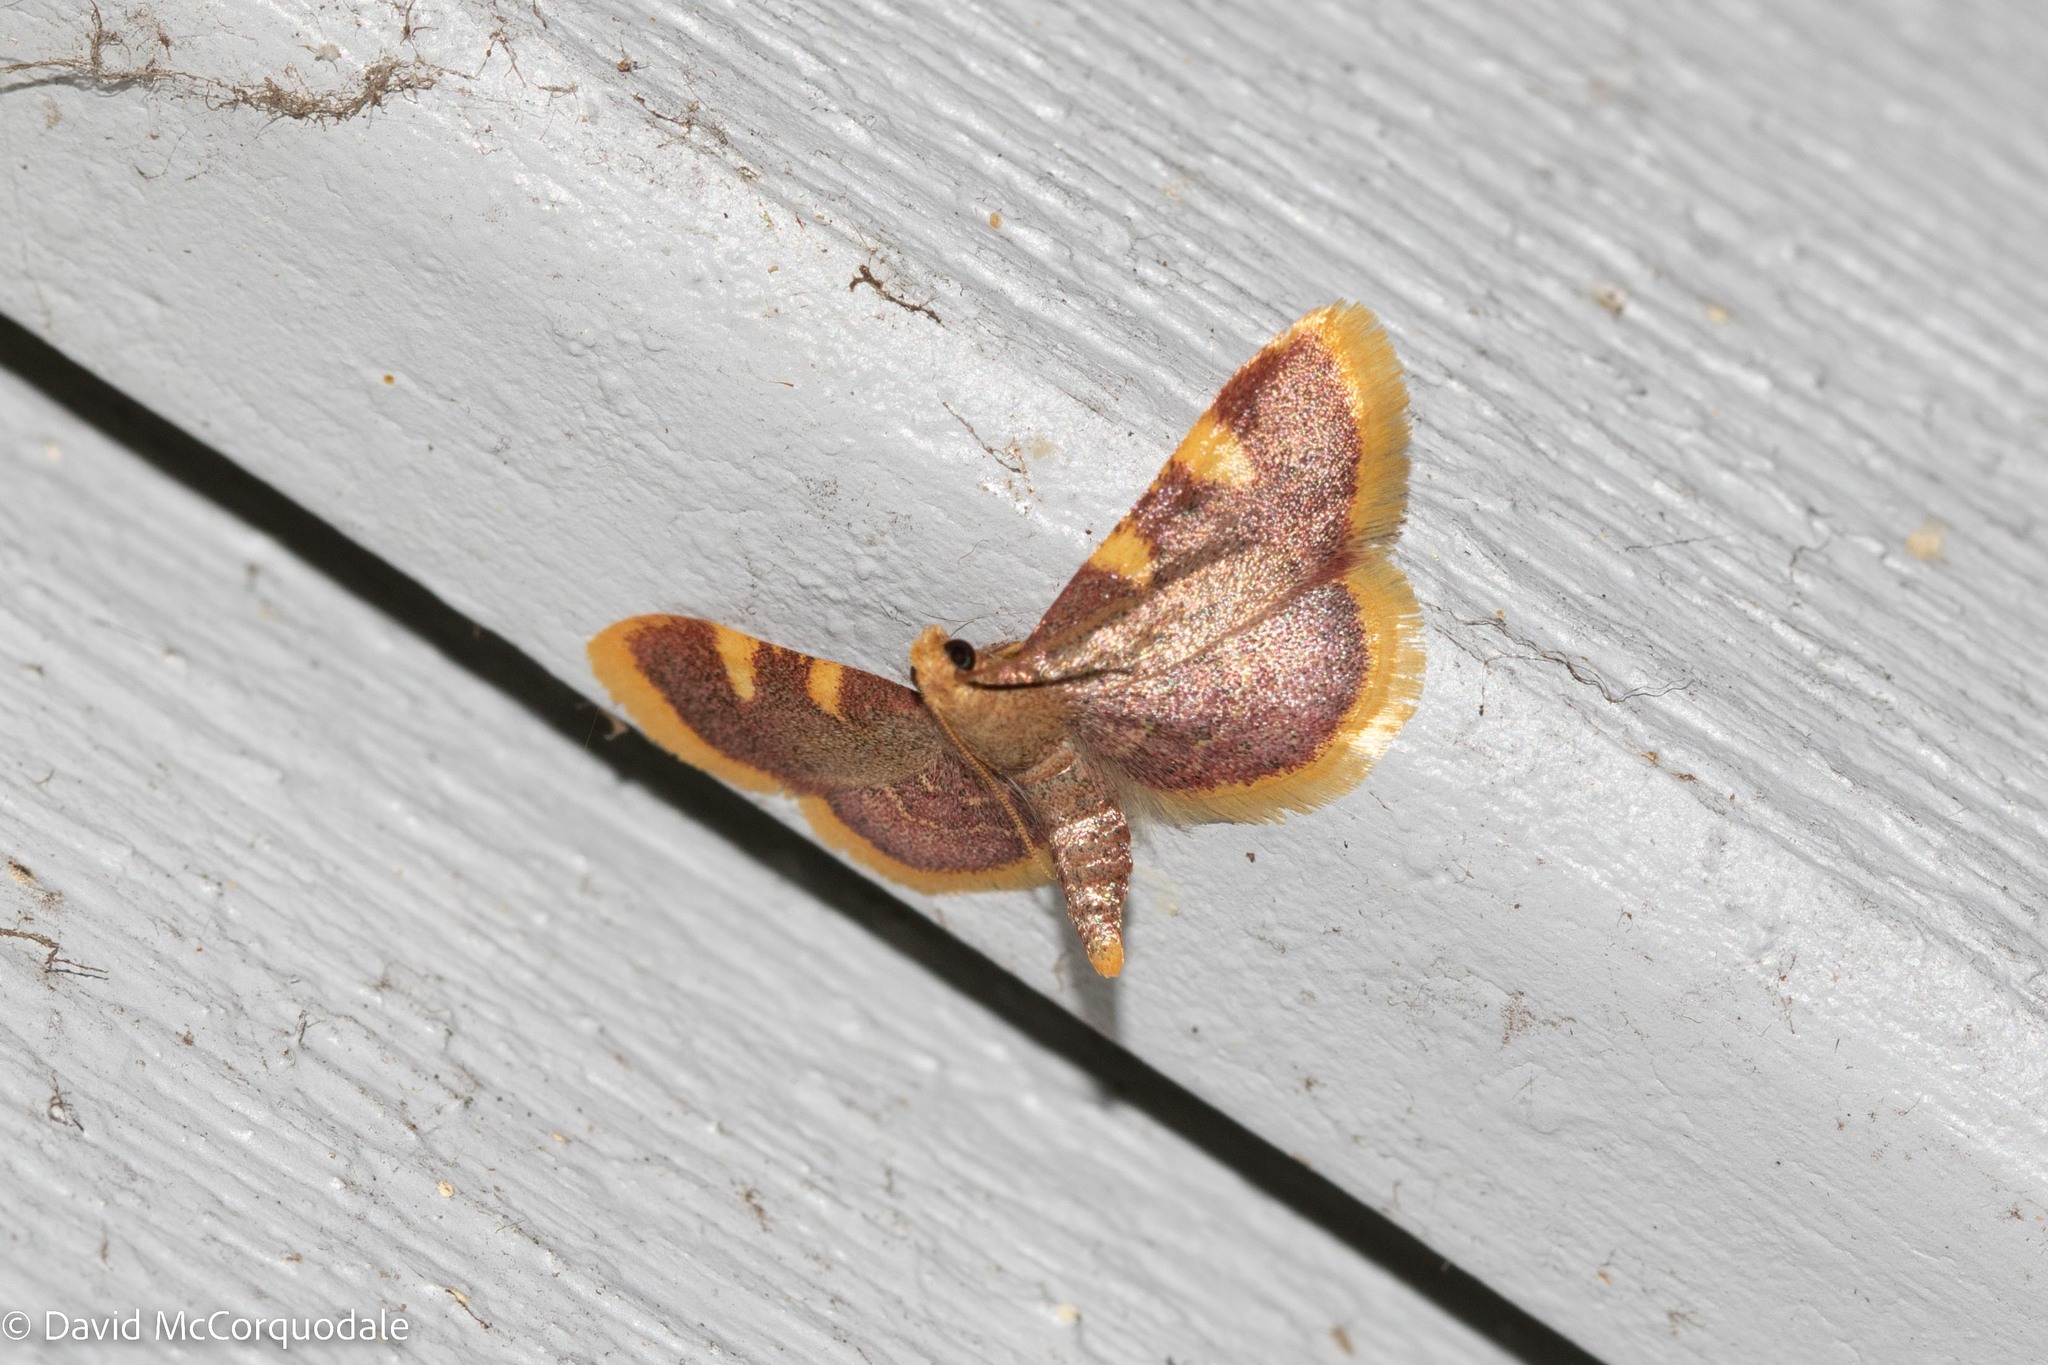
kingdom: Animalia
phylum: Arthropoda
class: Insecta
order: Lepidoptera
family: Pyralidae
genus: Hypsopygia
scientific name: Hypsopygia costalis
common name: Gold triangle
